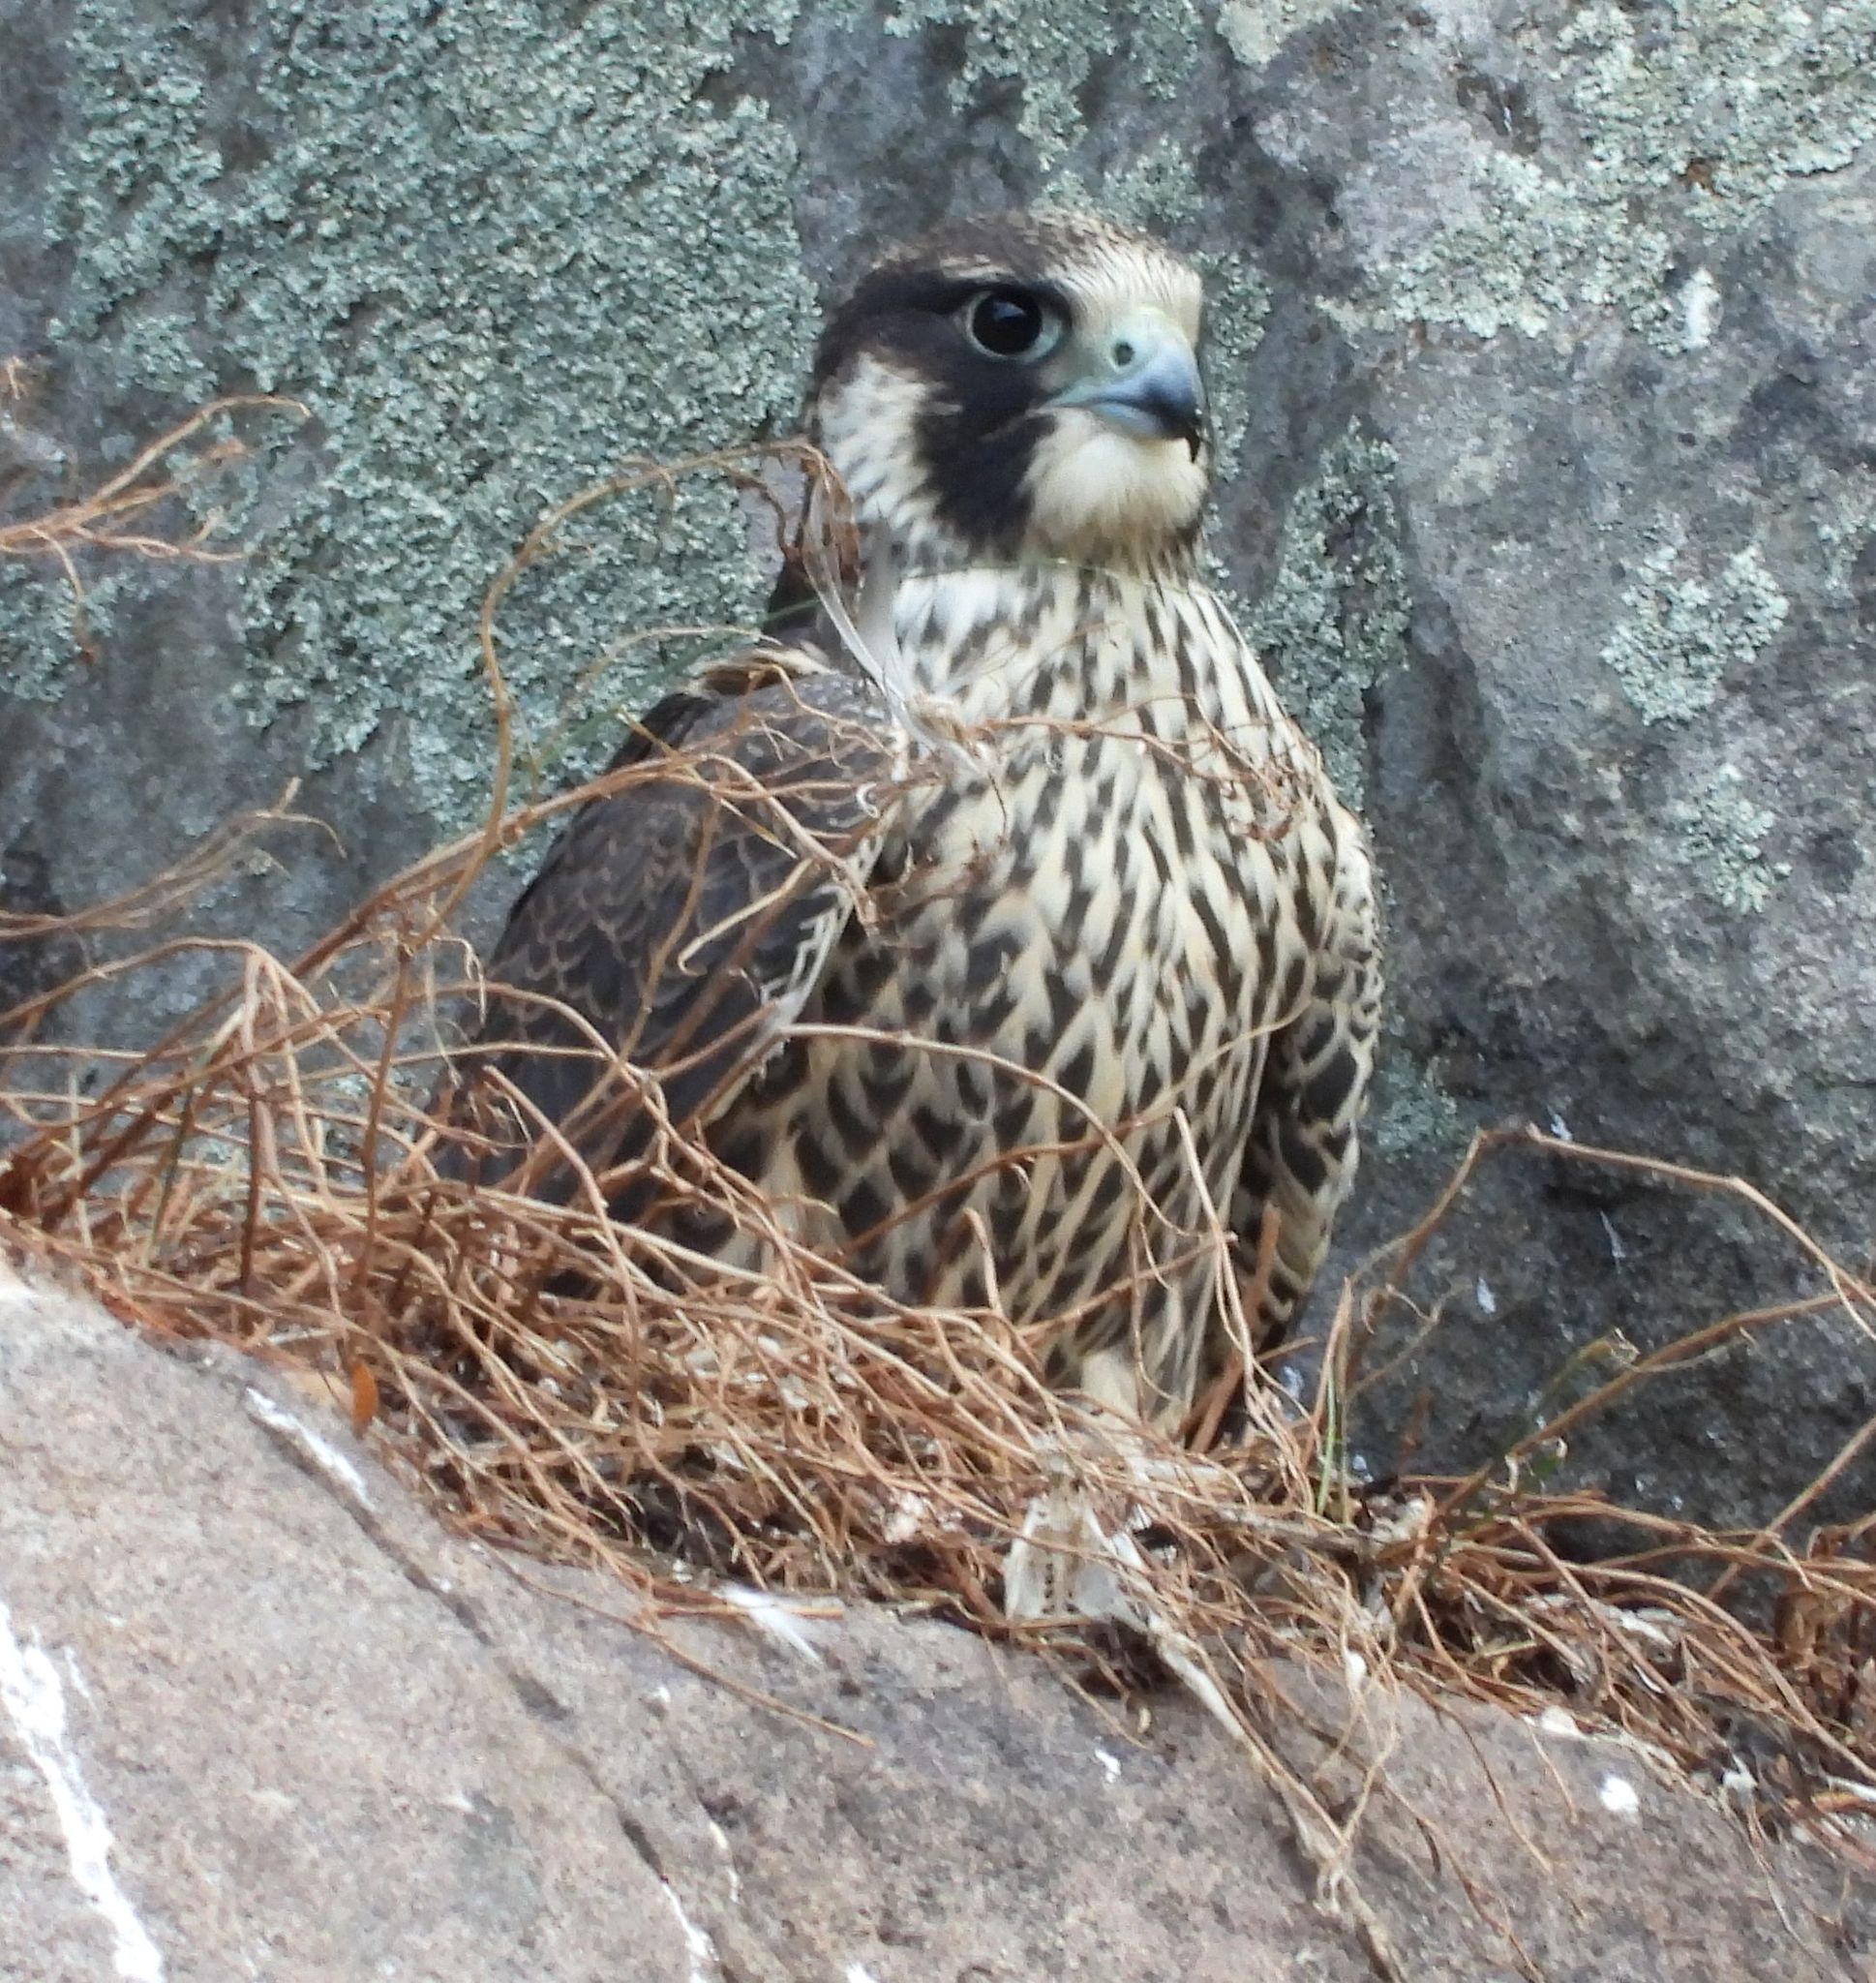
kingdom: Animalia
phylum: Chordata
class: Aves
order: Falconiformes
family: Falconidae
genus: Falco
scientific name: Falco peregrinus
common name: Peregrine falcon
